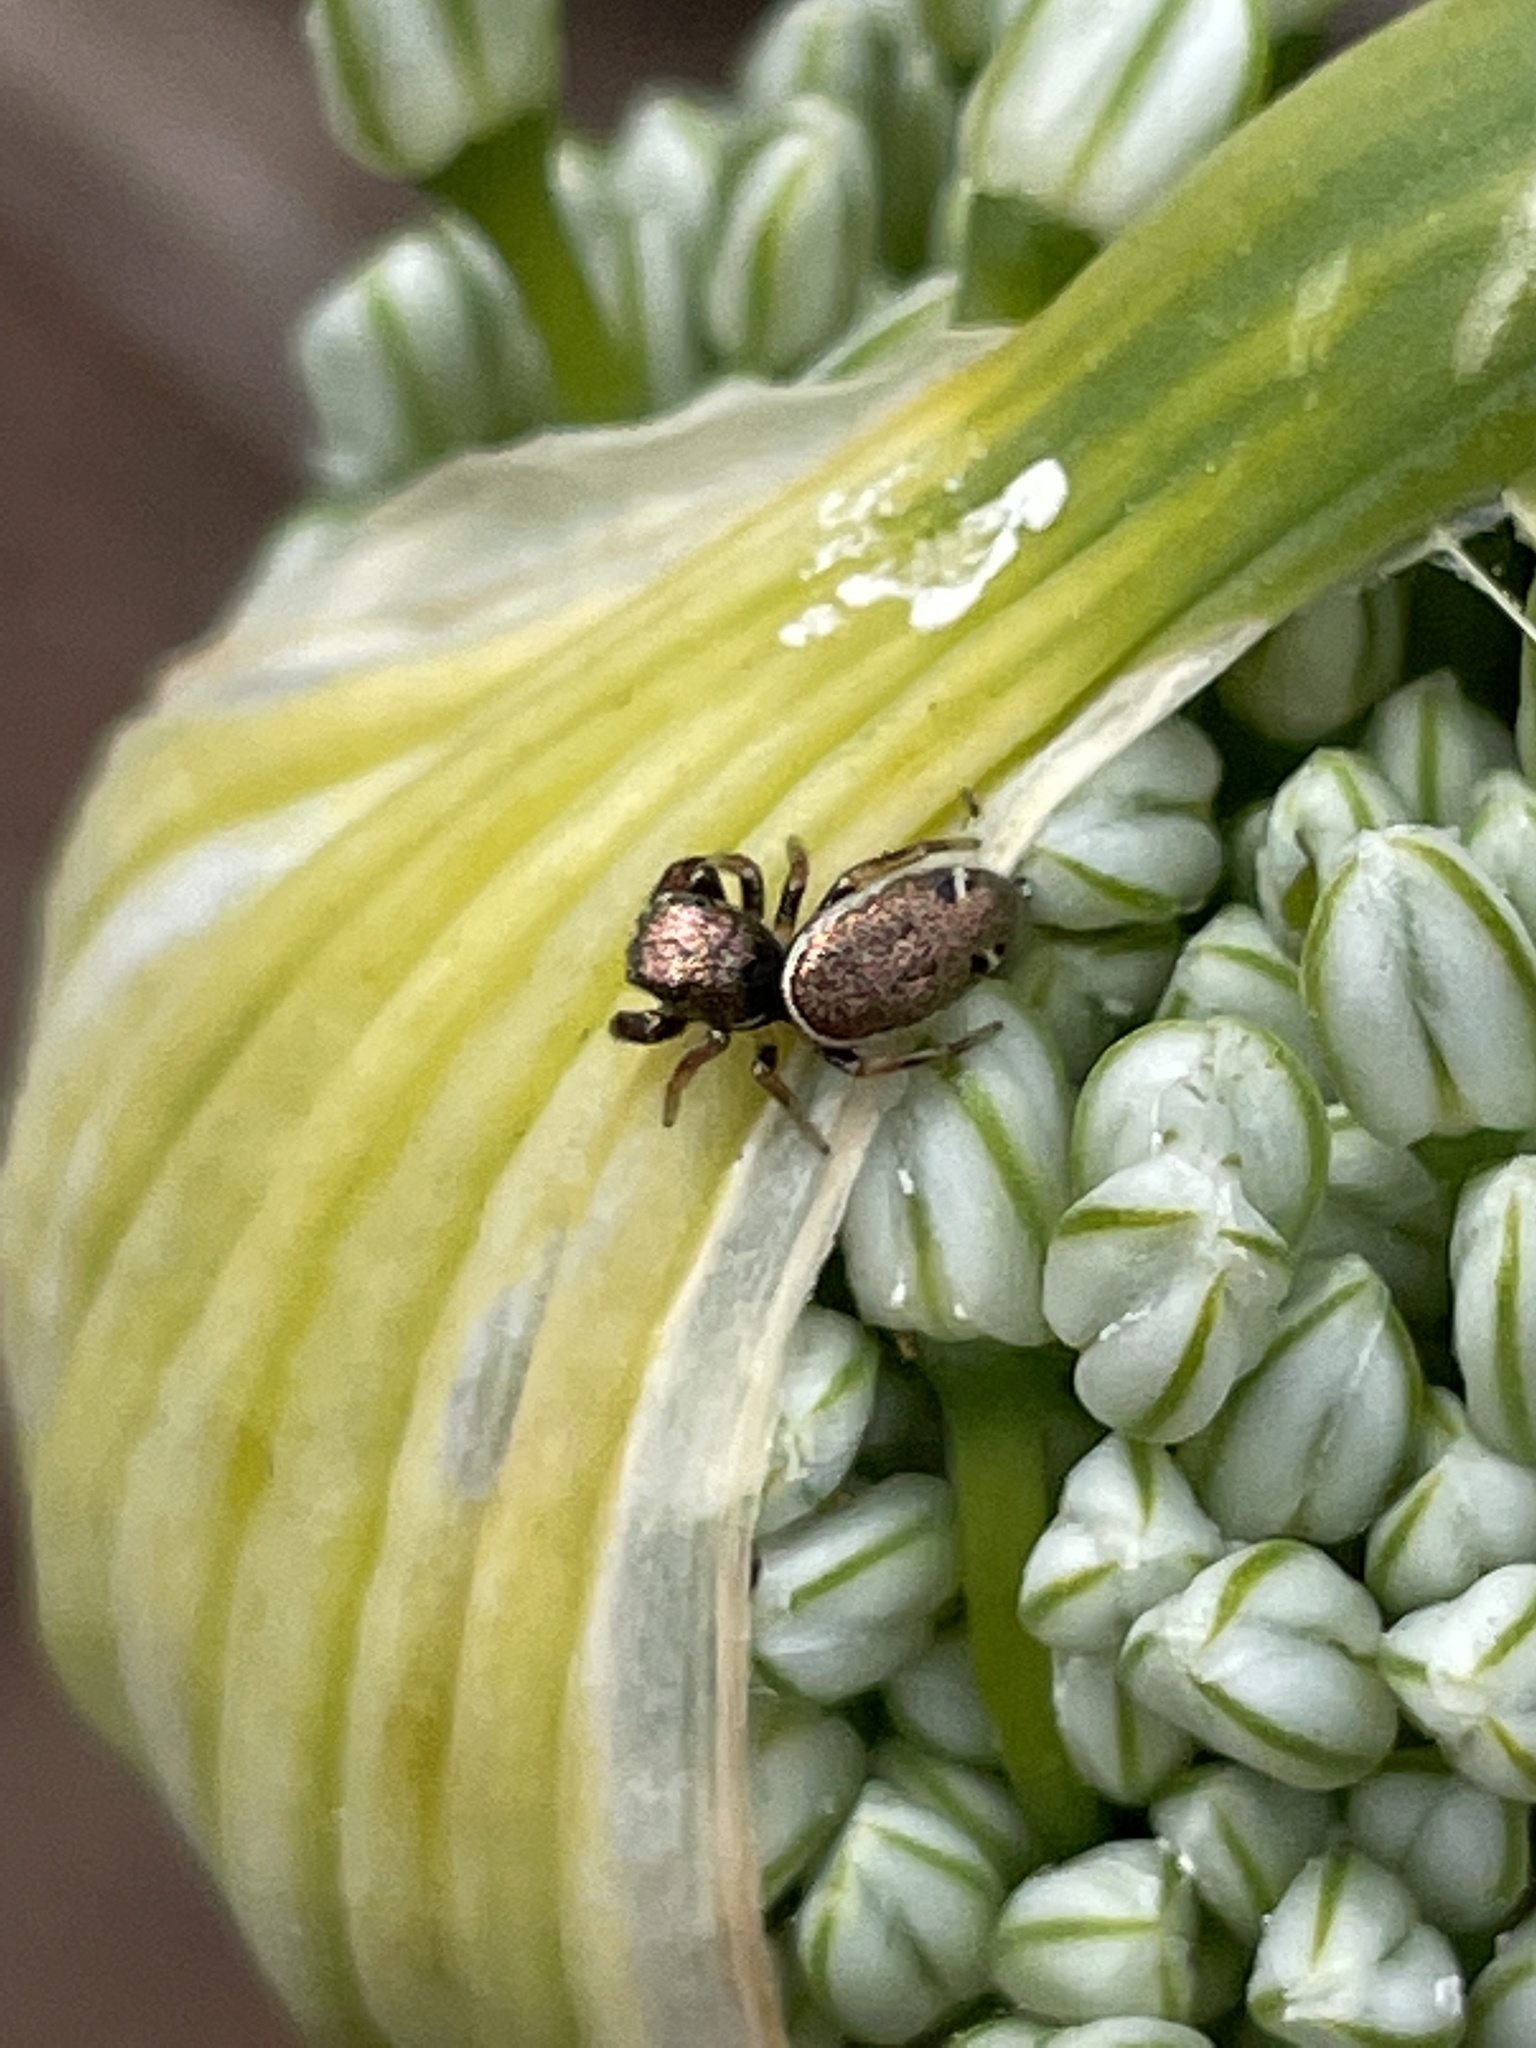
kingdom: Animalia
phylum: Arthropoda
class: Arachnida
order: Araneae
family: Salticidae
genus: Sassacus
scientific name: Sassacus vitis
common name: Jumping spiders
